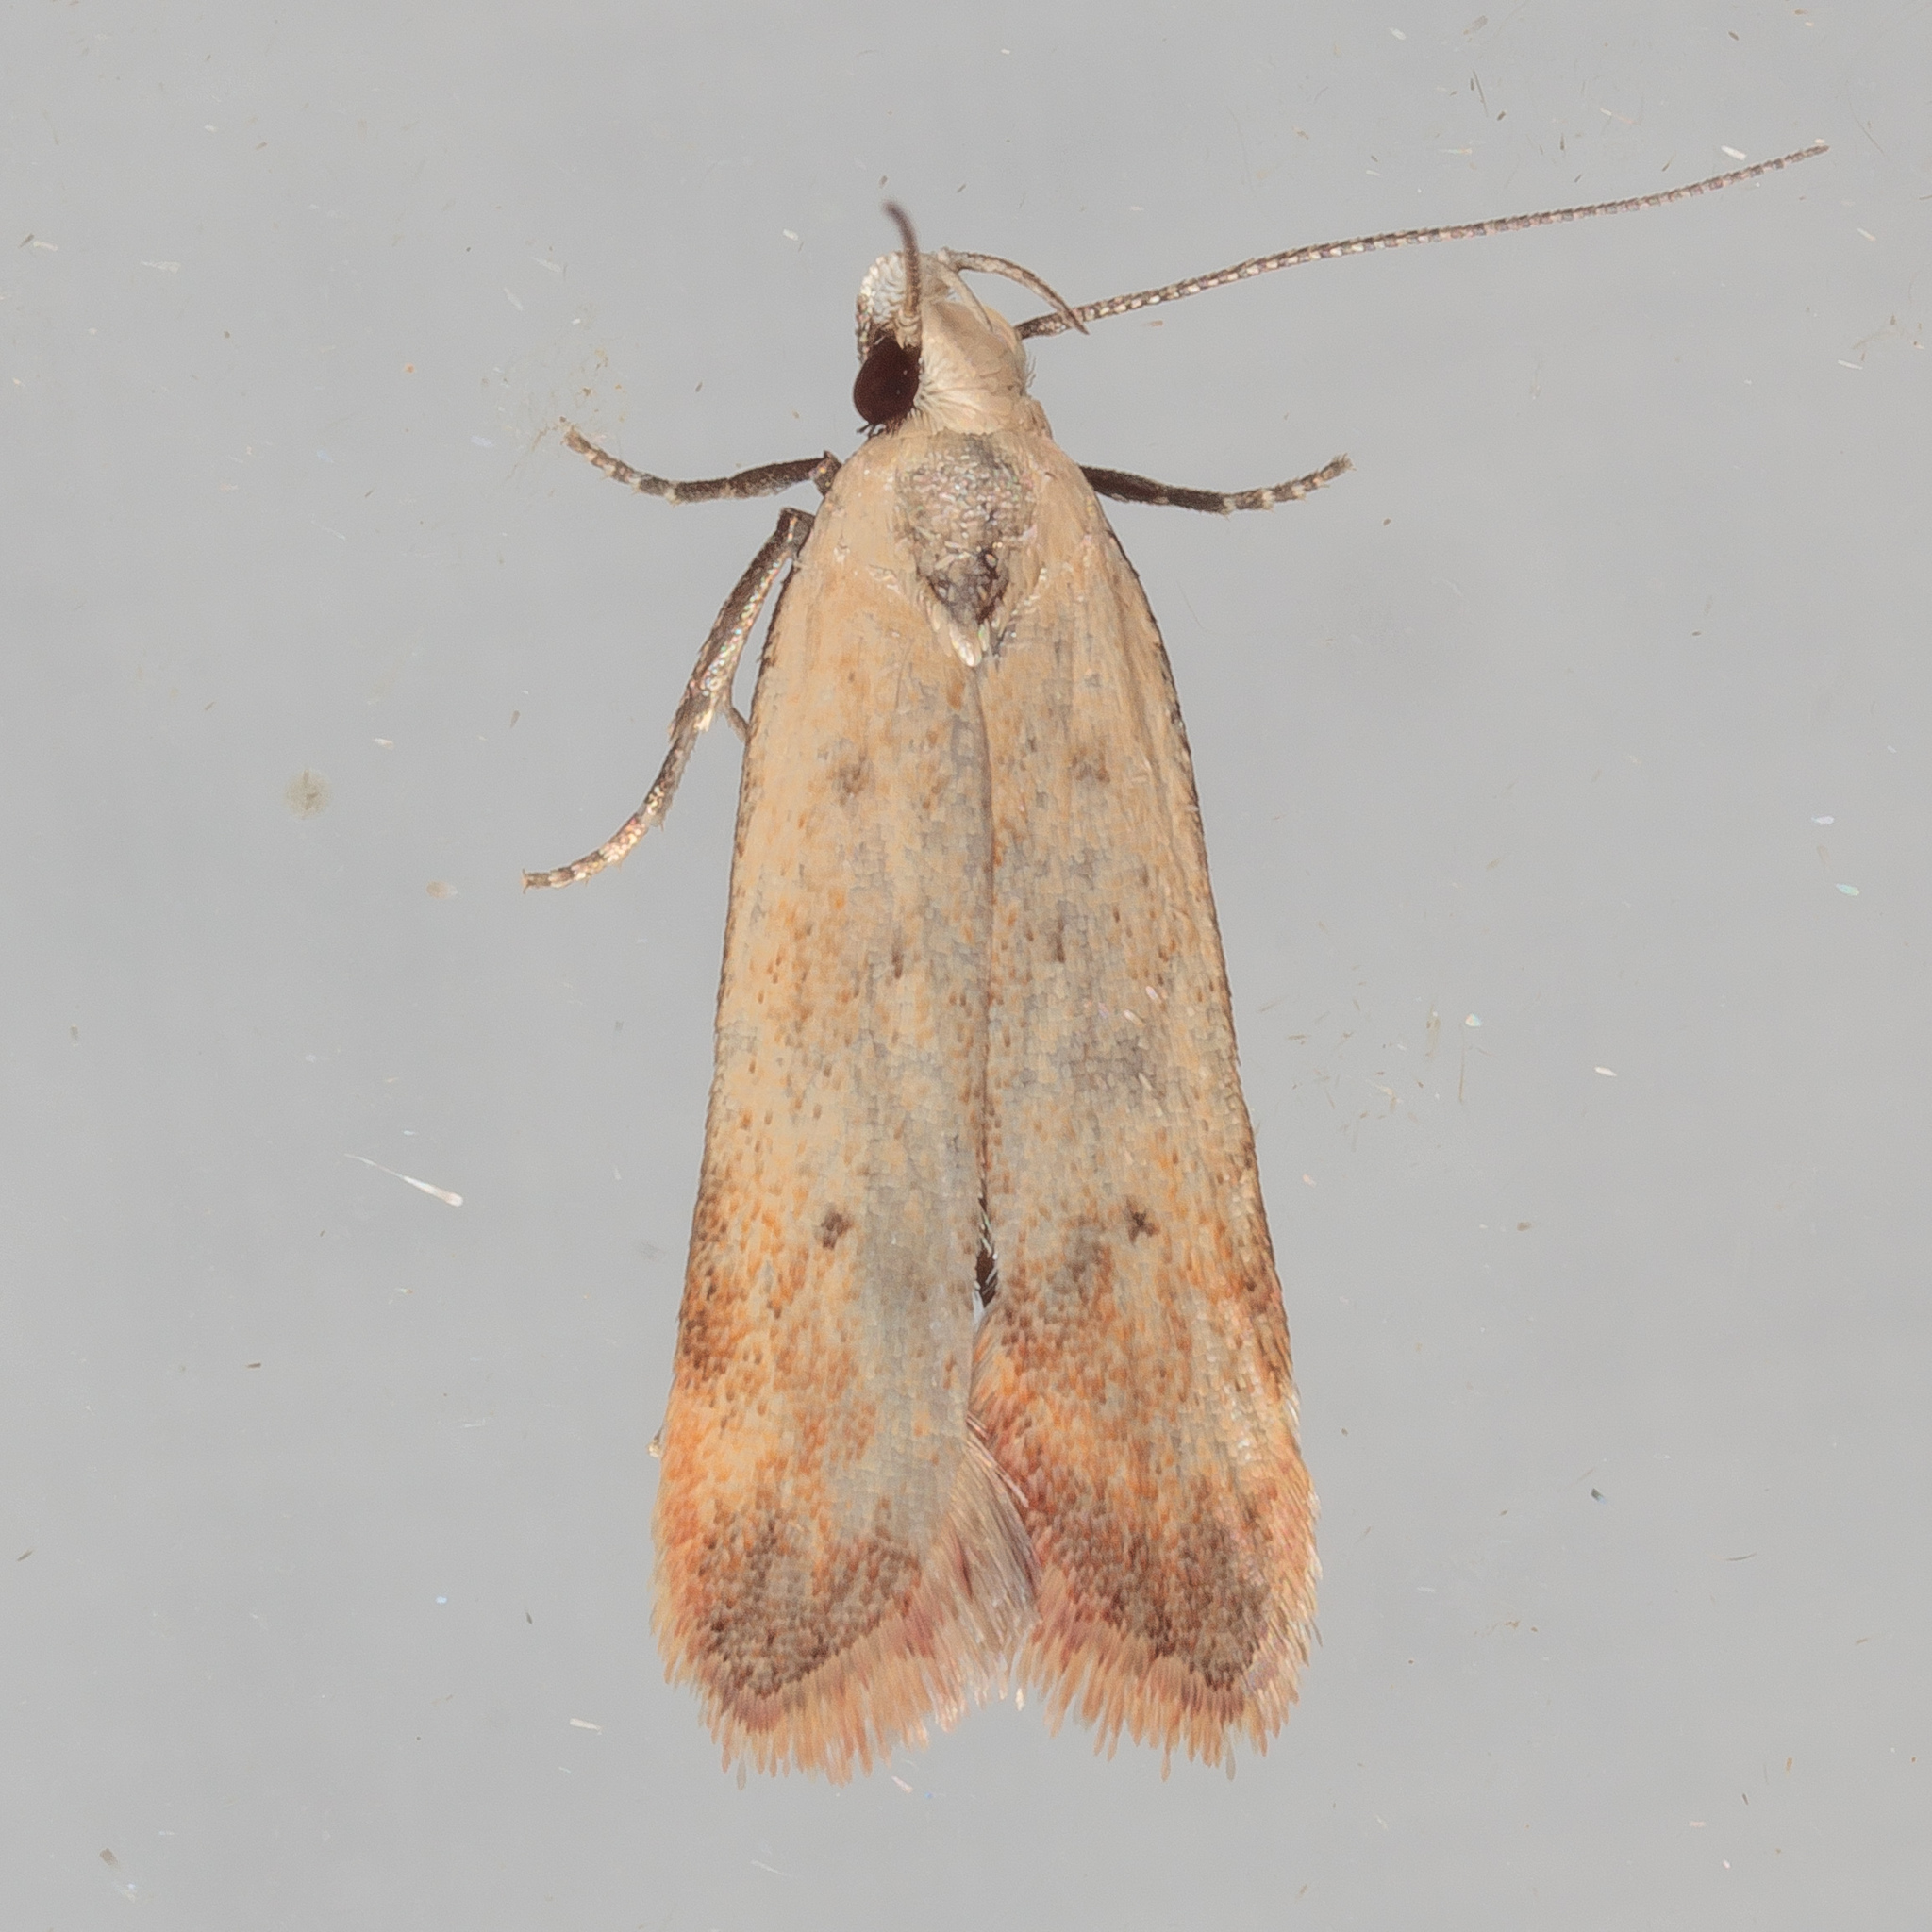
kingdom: Animalia
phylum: Arthropoda
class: Insecta
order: Lepidoptera
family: Gelechiidae
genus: Anacampsis
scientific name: Anacampsis fullonella
